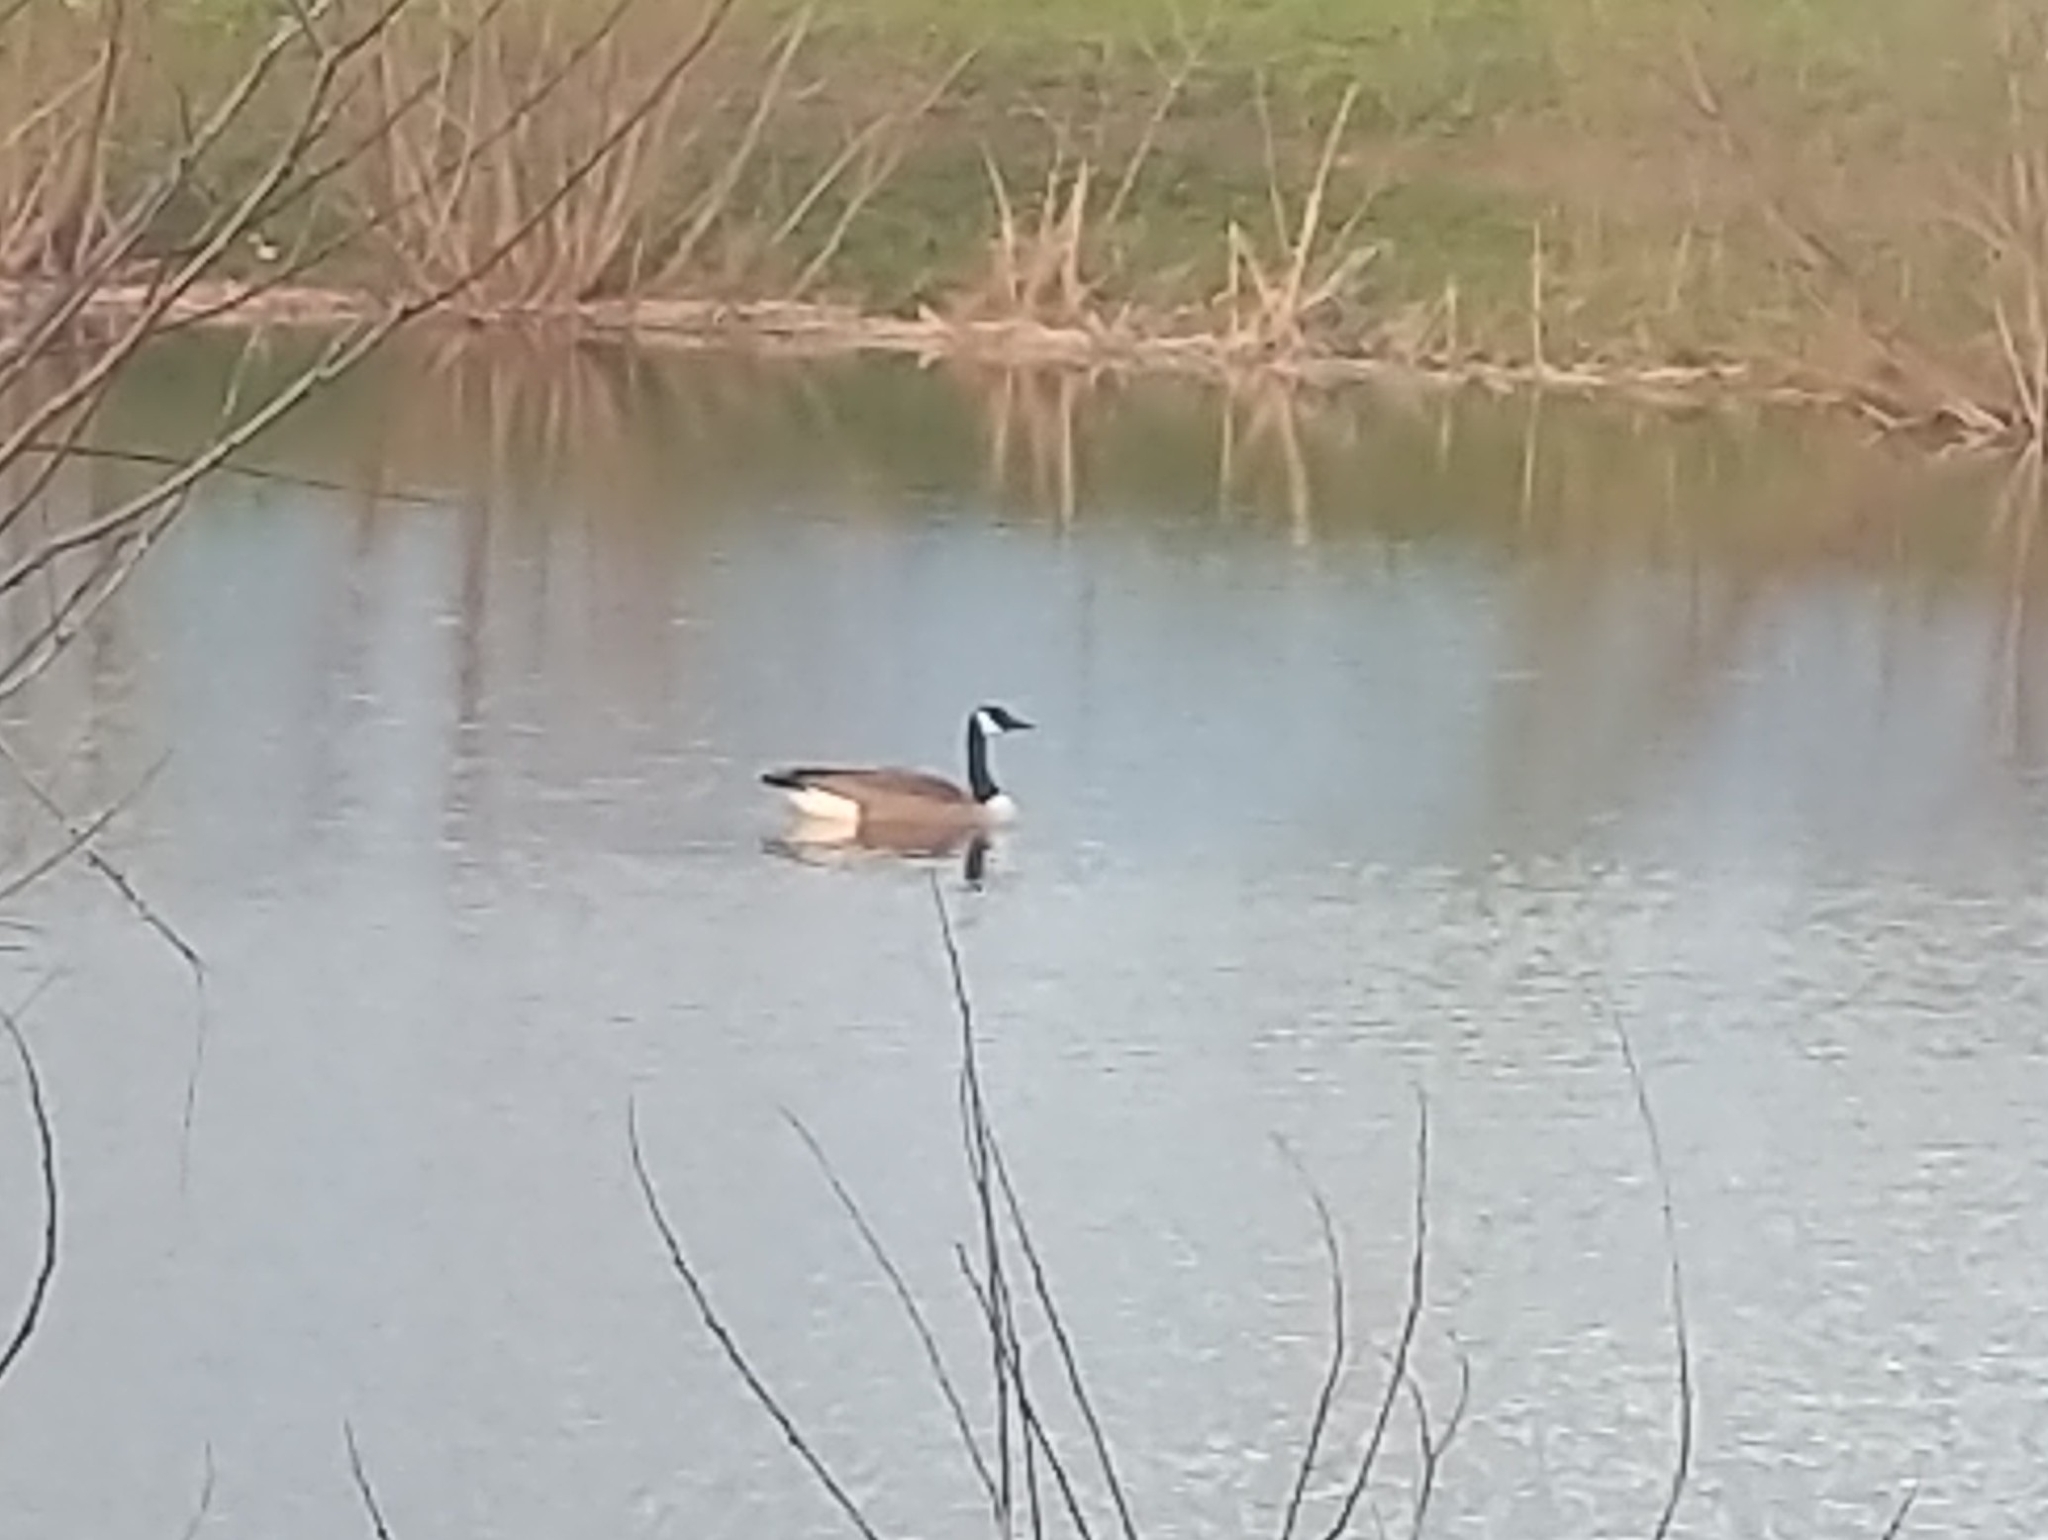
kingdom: Animalia
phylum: Chordata
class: Aves
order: Anseriformes
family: Anatidae
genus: Branta
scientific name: Branta canadensis
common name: Canada goose
